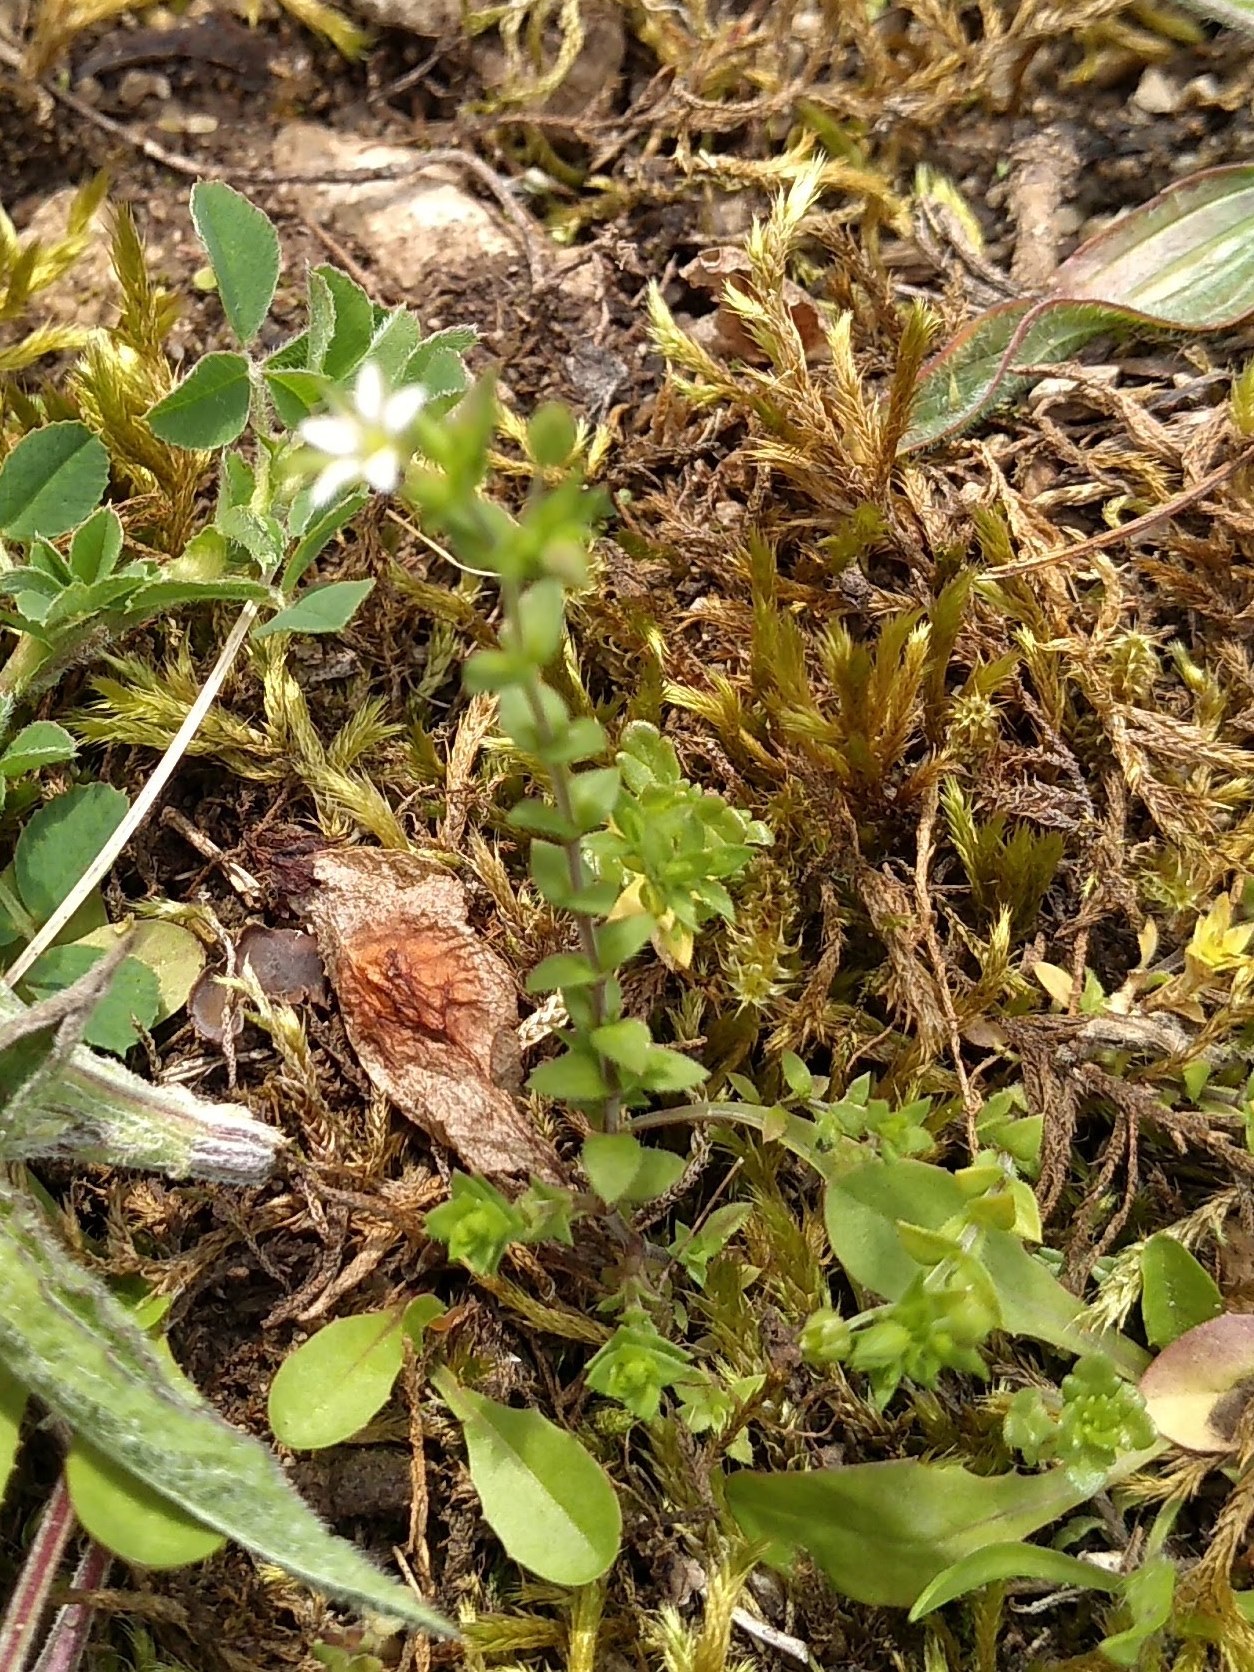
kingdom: Plantae
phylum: Tracheophyta
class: Magnoliopsida
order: Caryophyllales
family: Caryophyllaceae
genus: Arenaria
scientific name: Arenaria serpyllifolia
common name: Thyme-leaved sandwort
